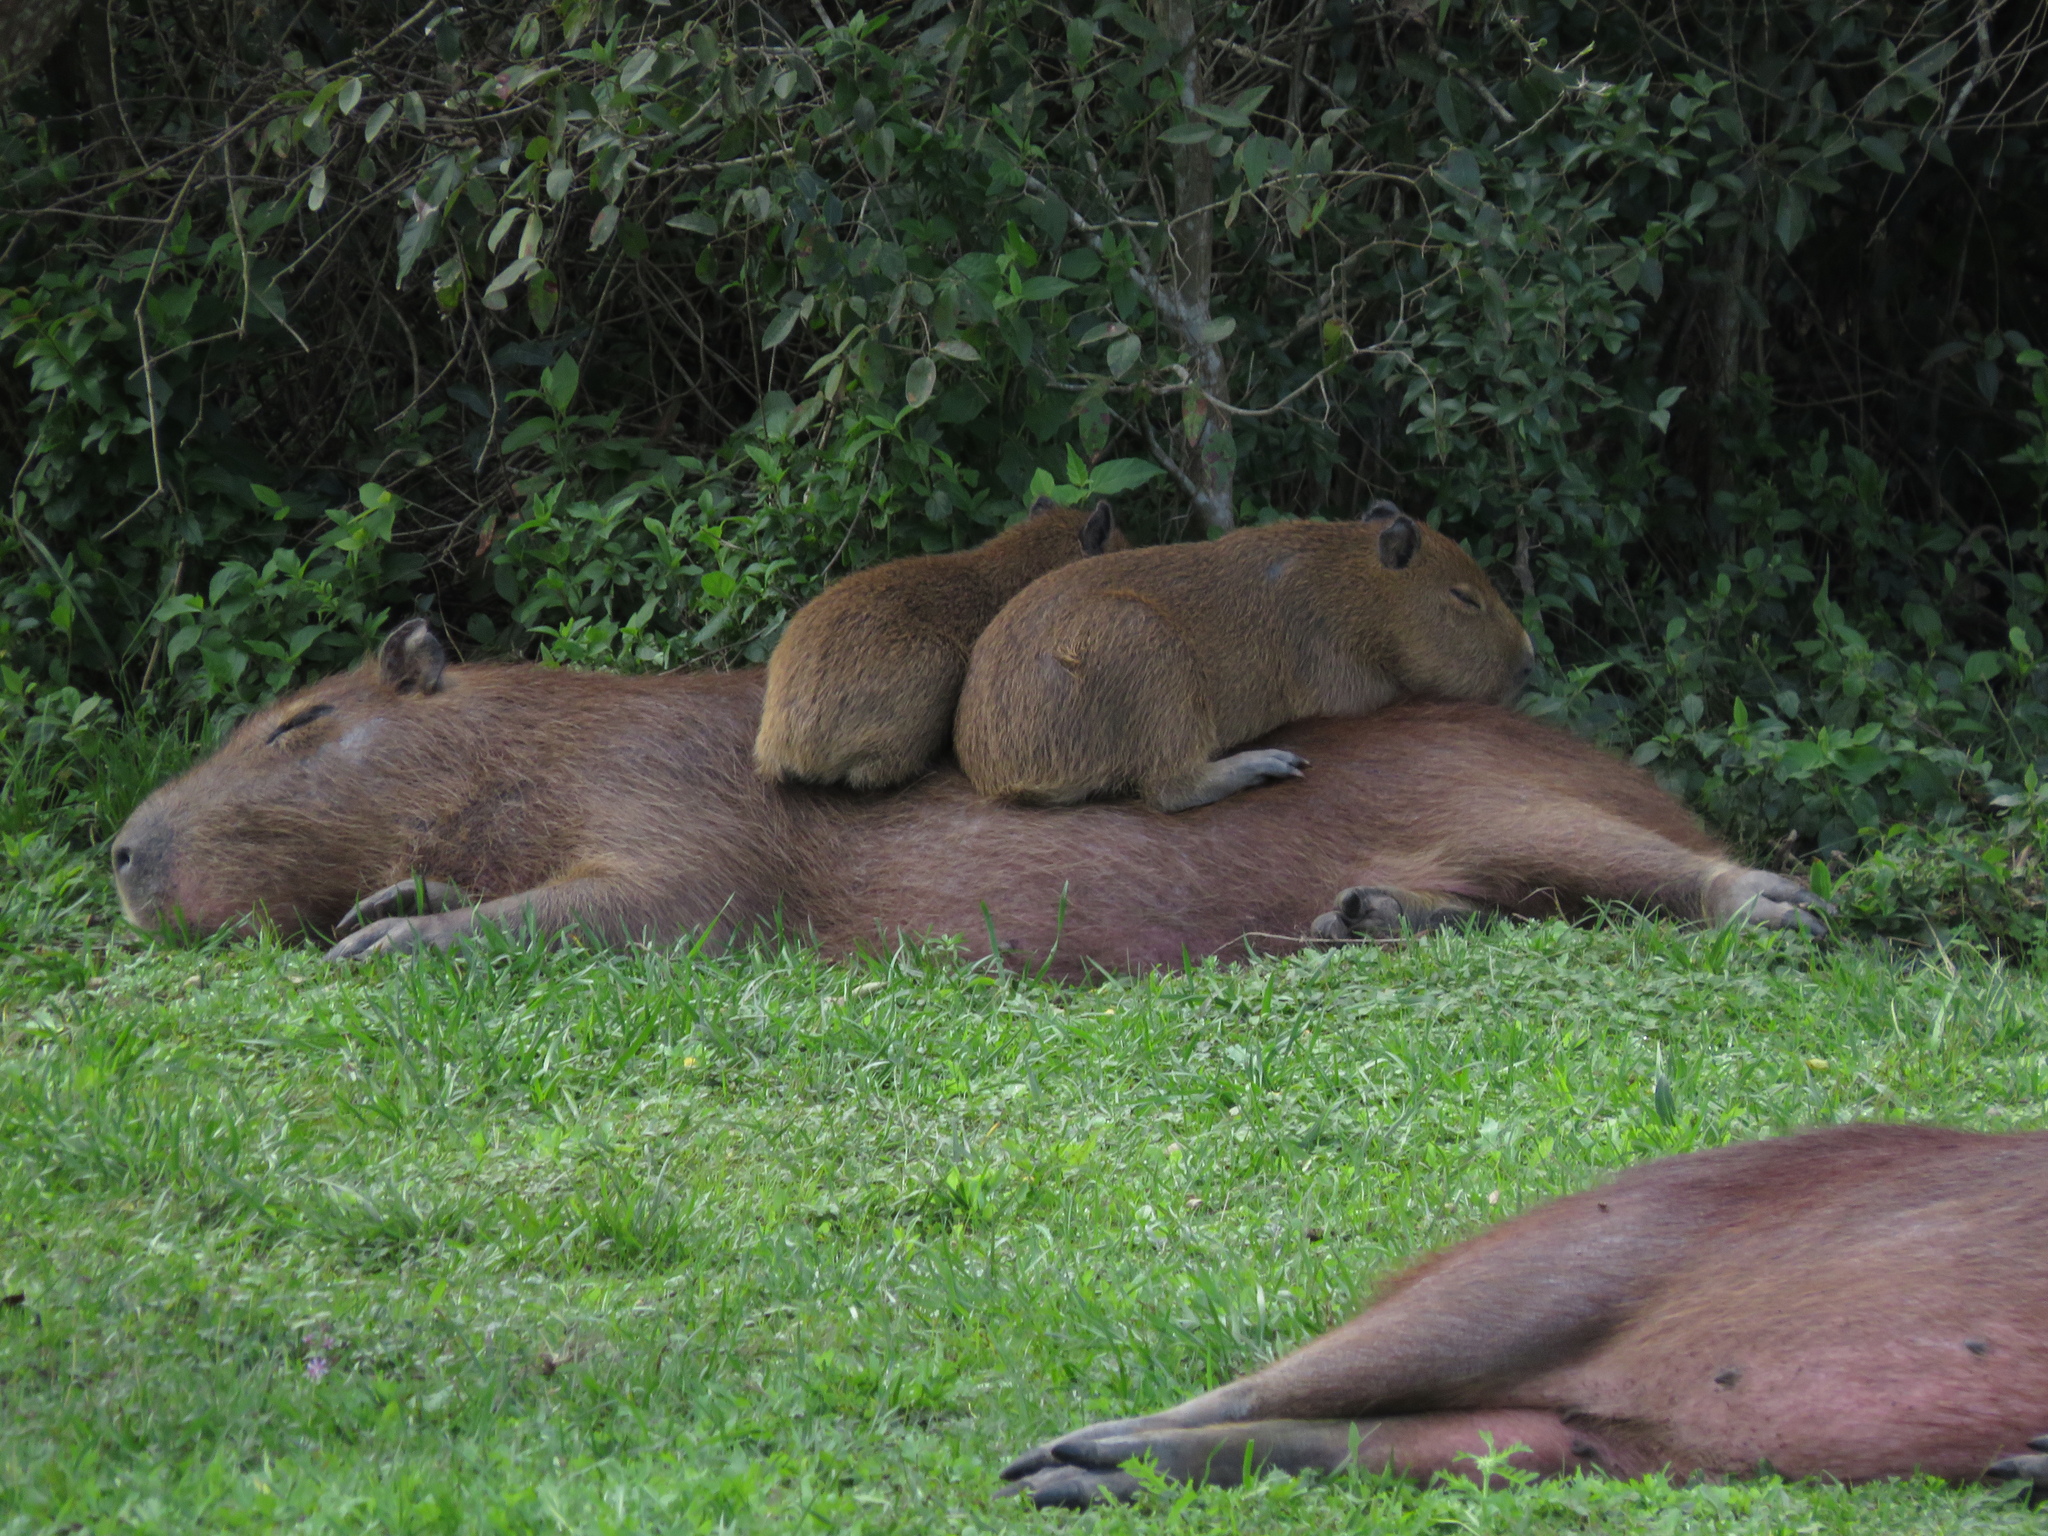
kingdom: Animalia
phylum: Chordata
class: Mammalia
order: Rodentia
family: Caviidae
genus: Hydrochoerus
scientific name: Hydrochoerus hydrochaeris
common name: Capybara
